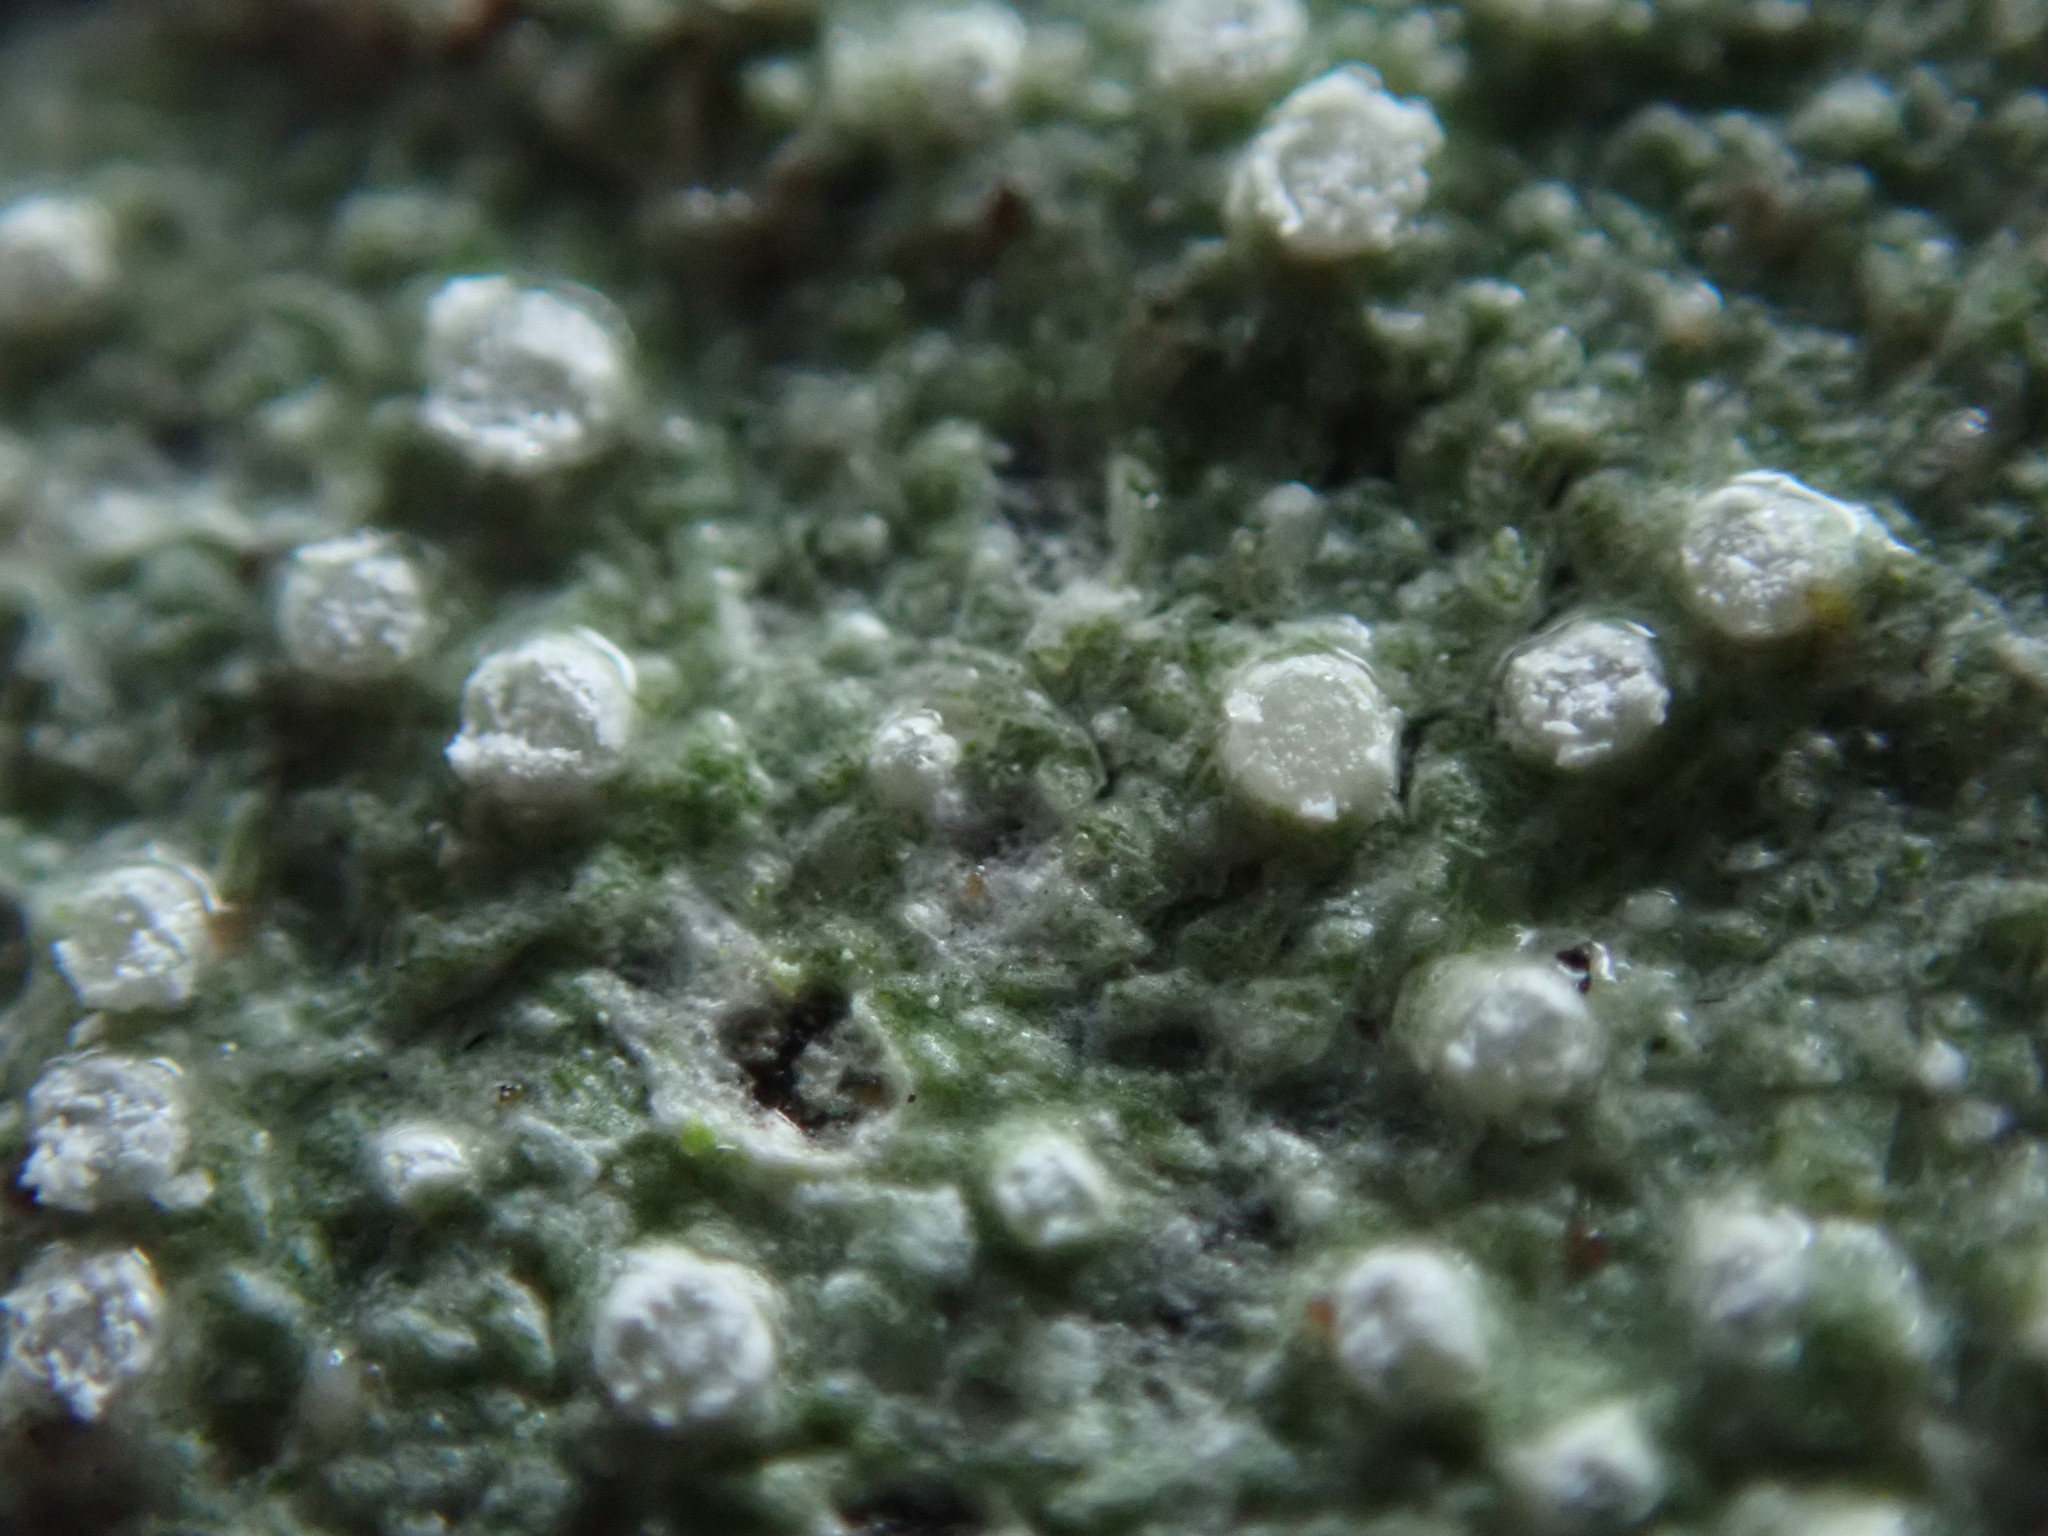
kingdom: Fungi
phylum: Ascomycota
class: Lecanoromycetes
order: Pertusariales
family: Pertusariaceae
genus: Pertusaria
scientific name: Pertusaria subambigens
